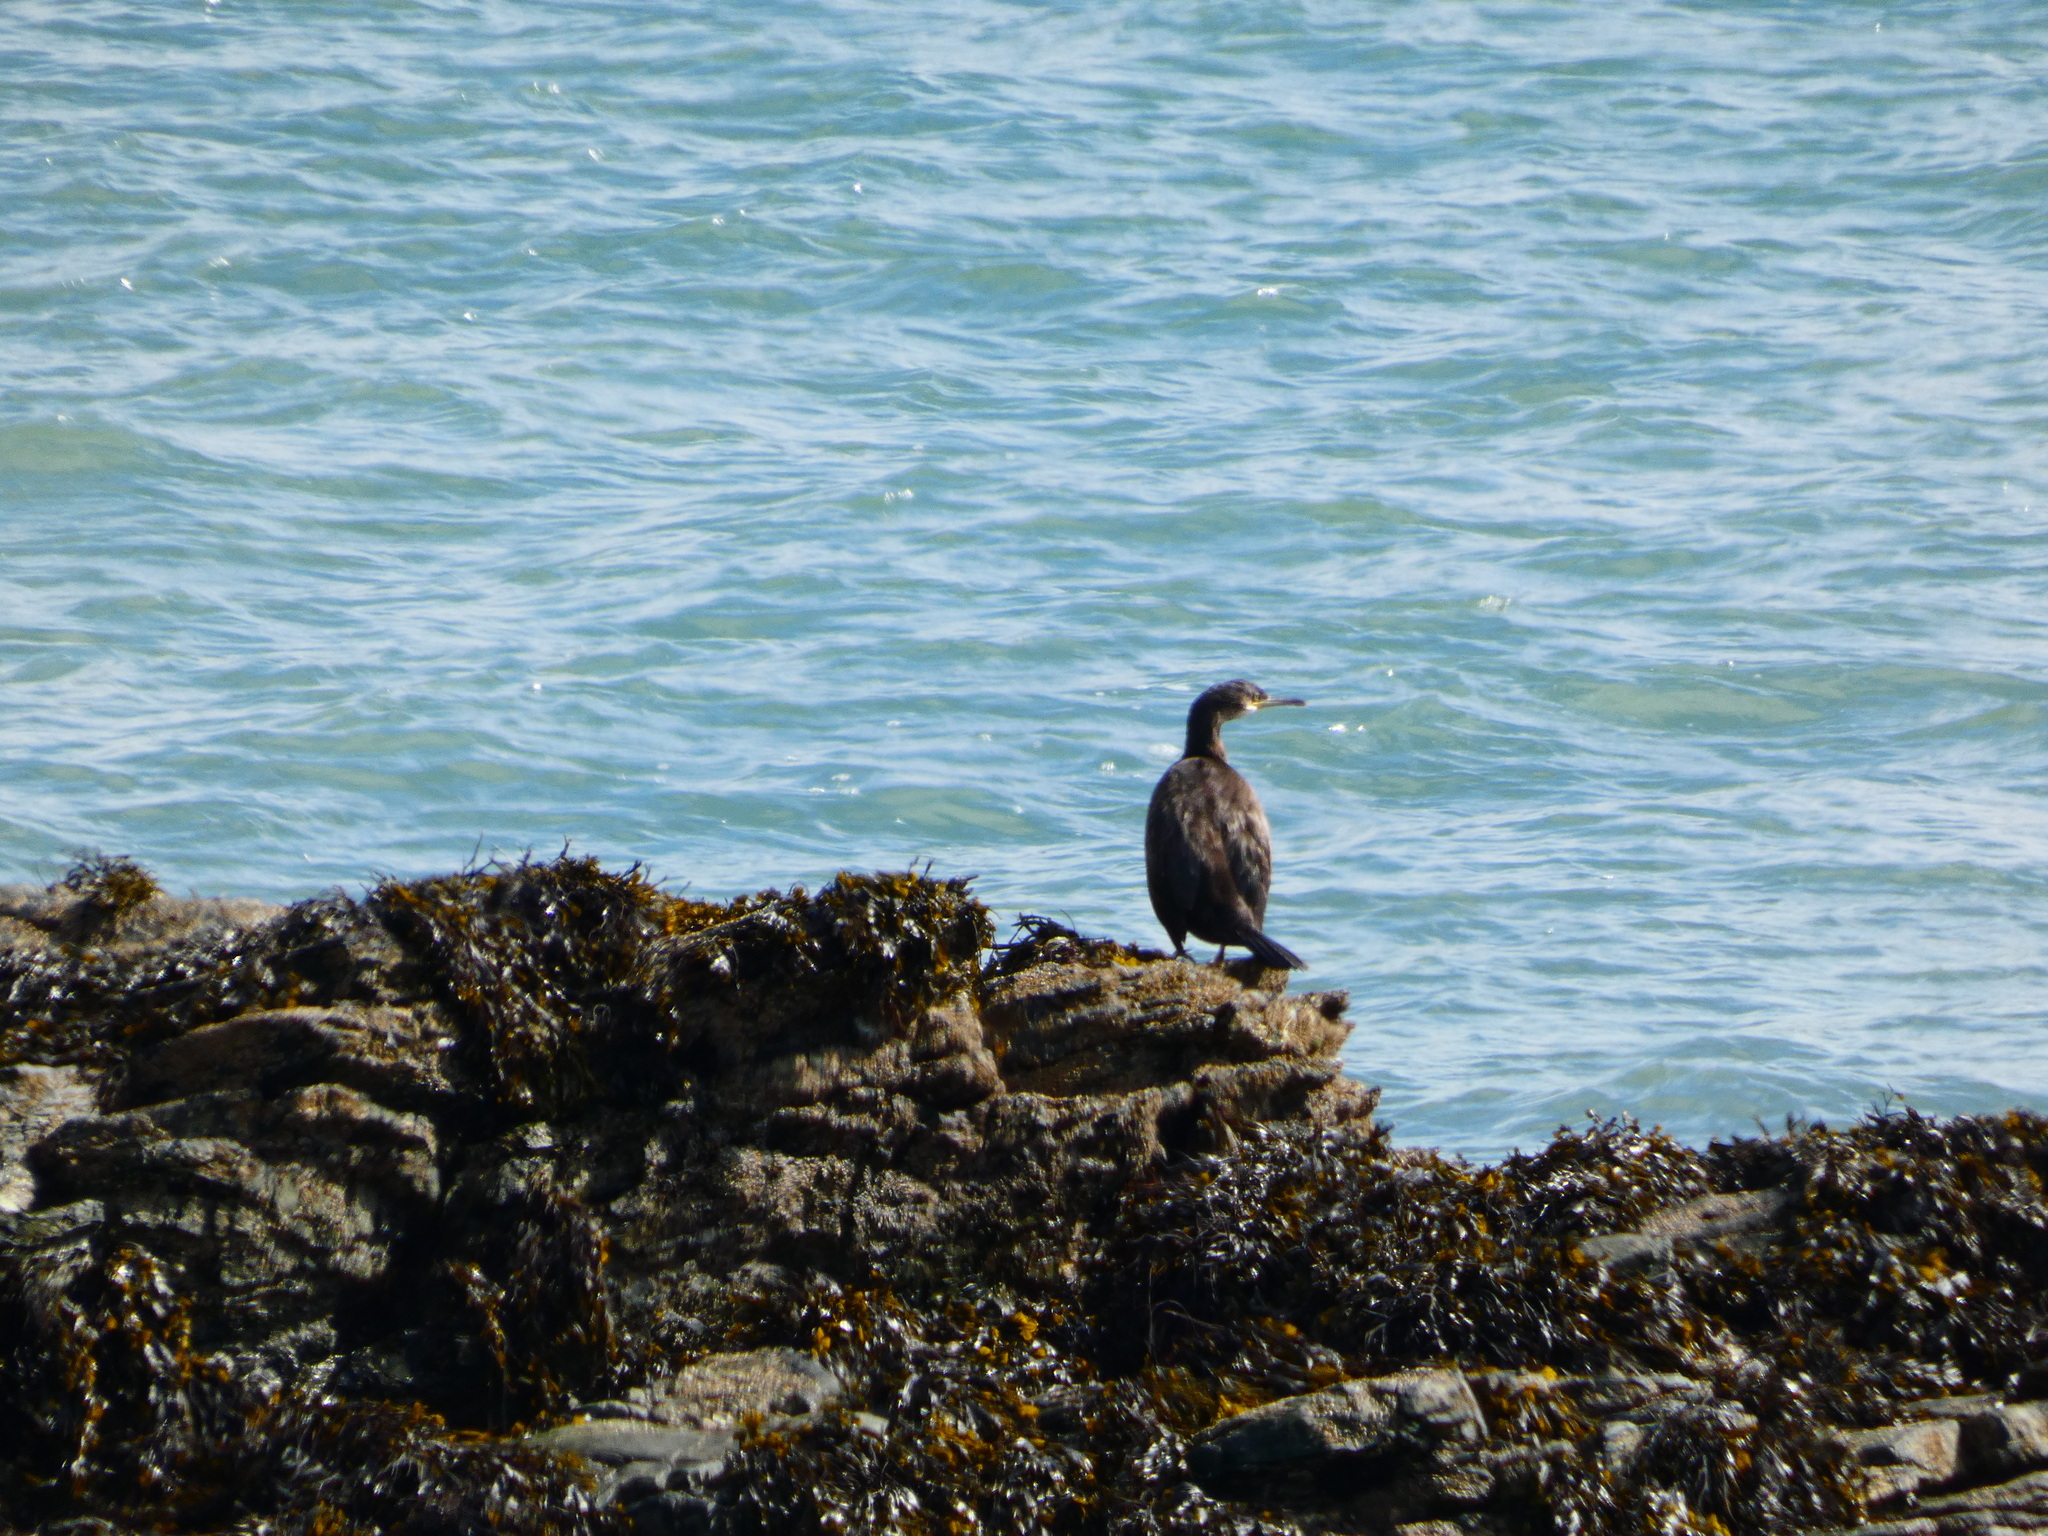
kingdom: Animalia
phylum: Chordata
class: Aves
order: Suliformes
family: Phalacrocoracidae
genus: Phalacrocorax
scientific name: Phalacrocorax aristotelis
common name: European shag
